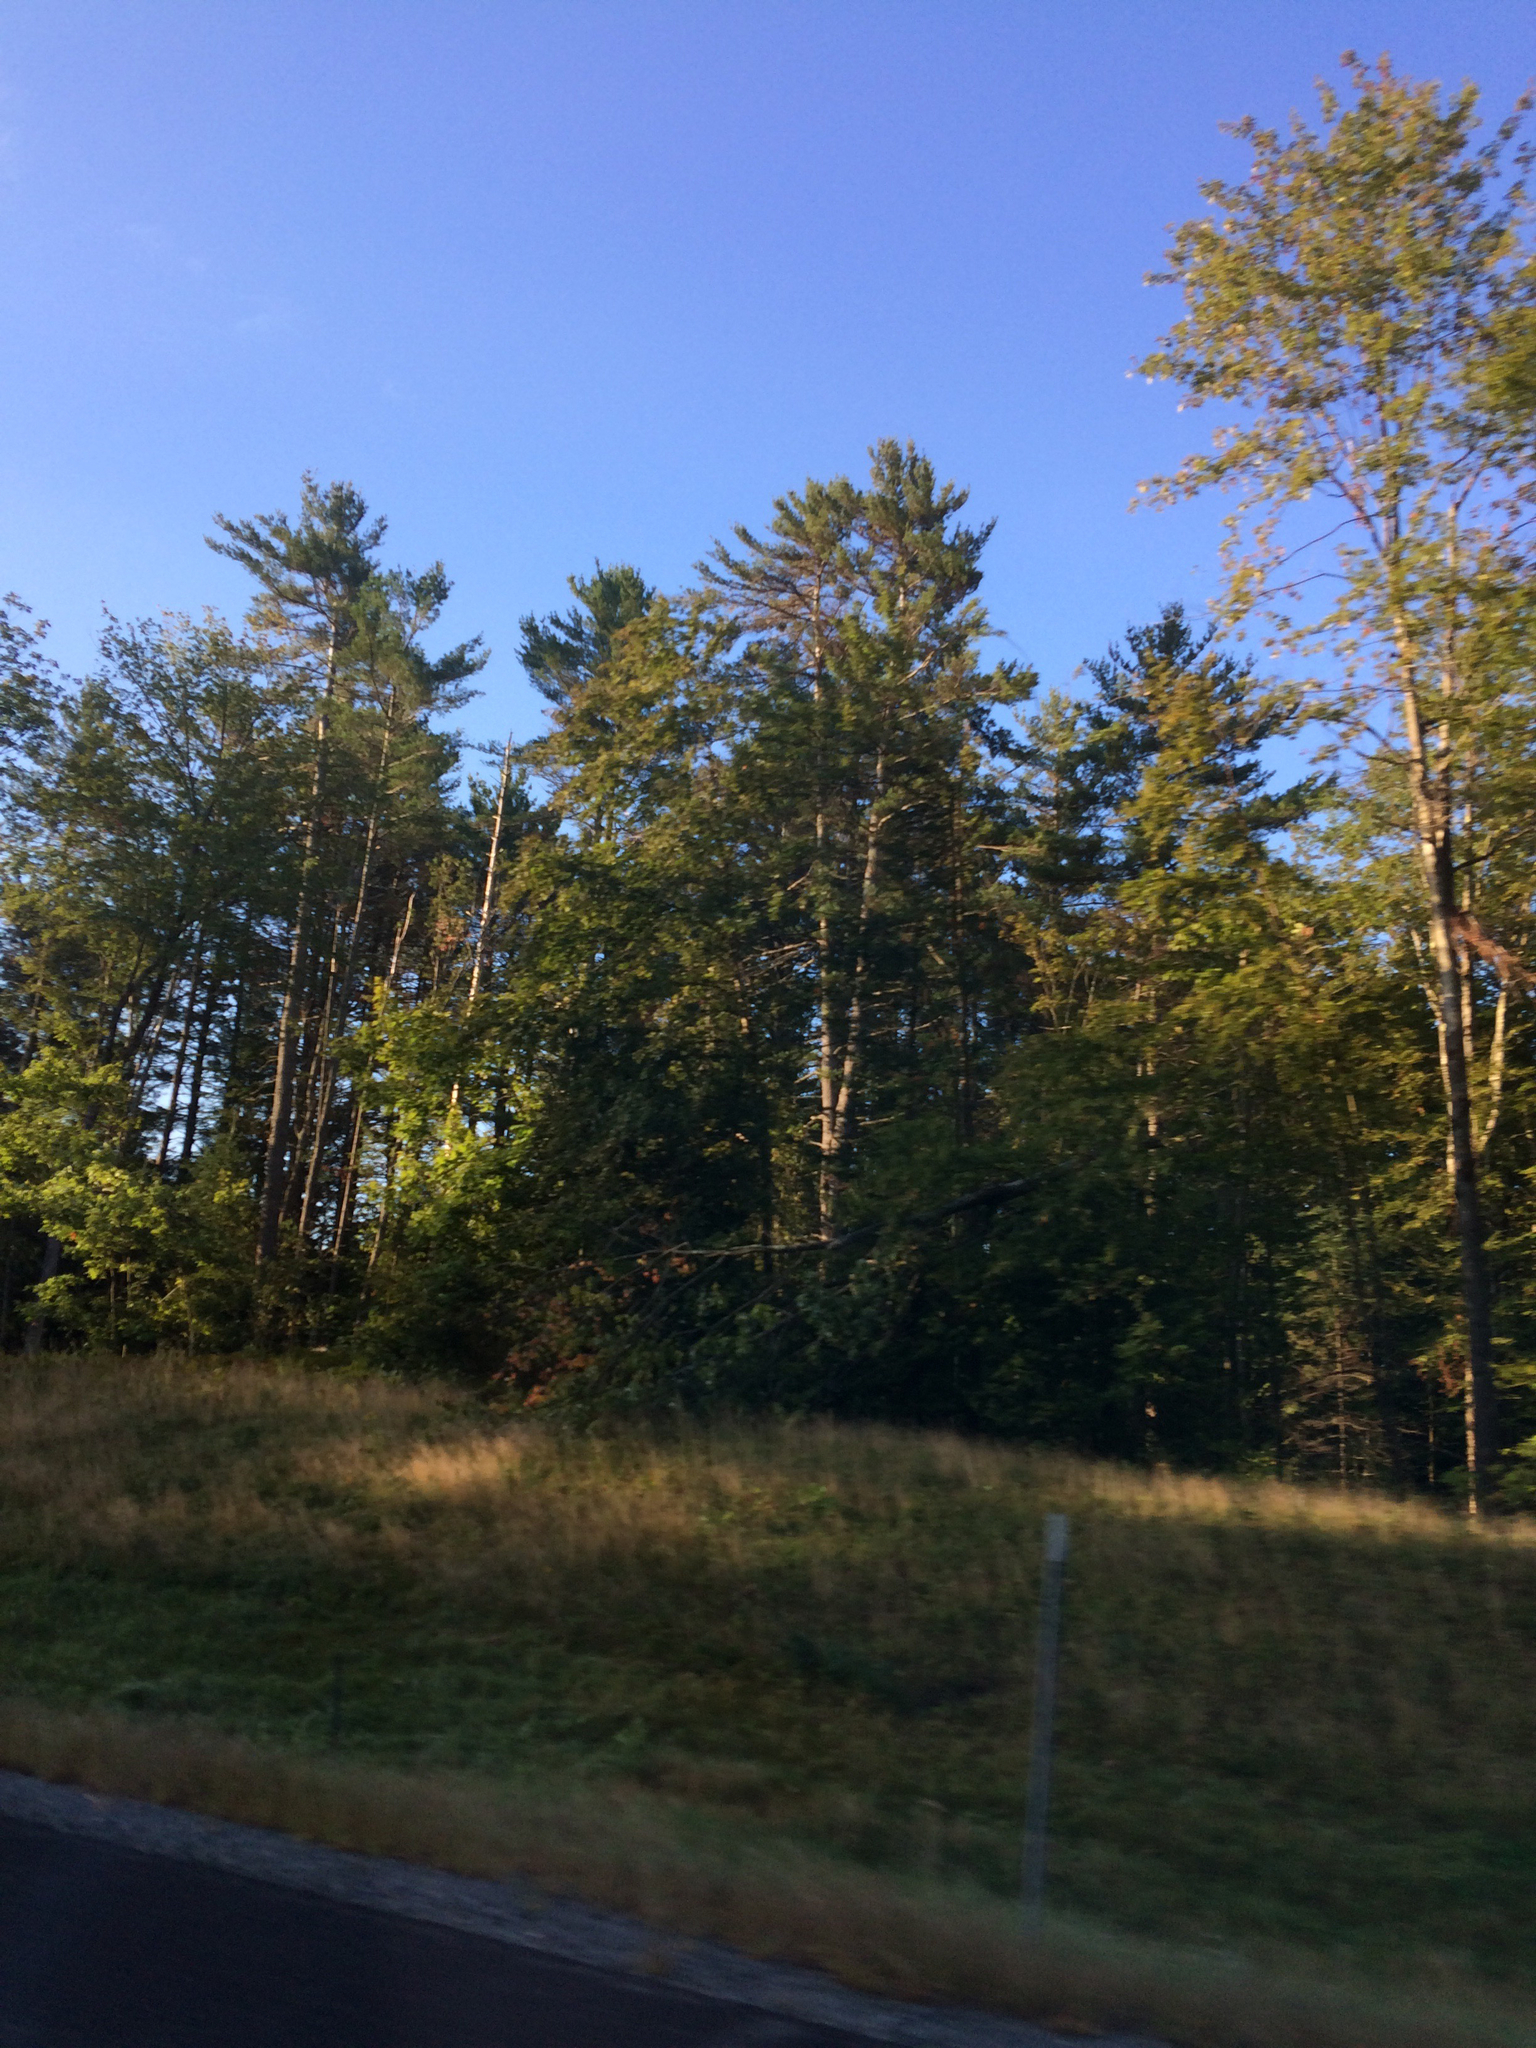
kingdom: Plantae
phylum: Tracheophyta
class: Pinopsida
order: Pinales
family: Pinaceae
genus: Pinus
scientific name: Pinus strobus
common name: Weymouth pine
